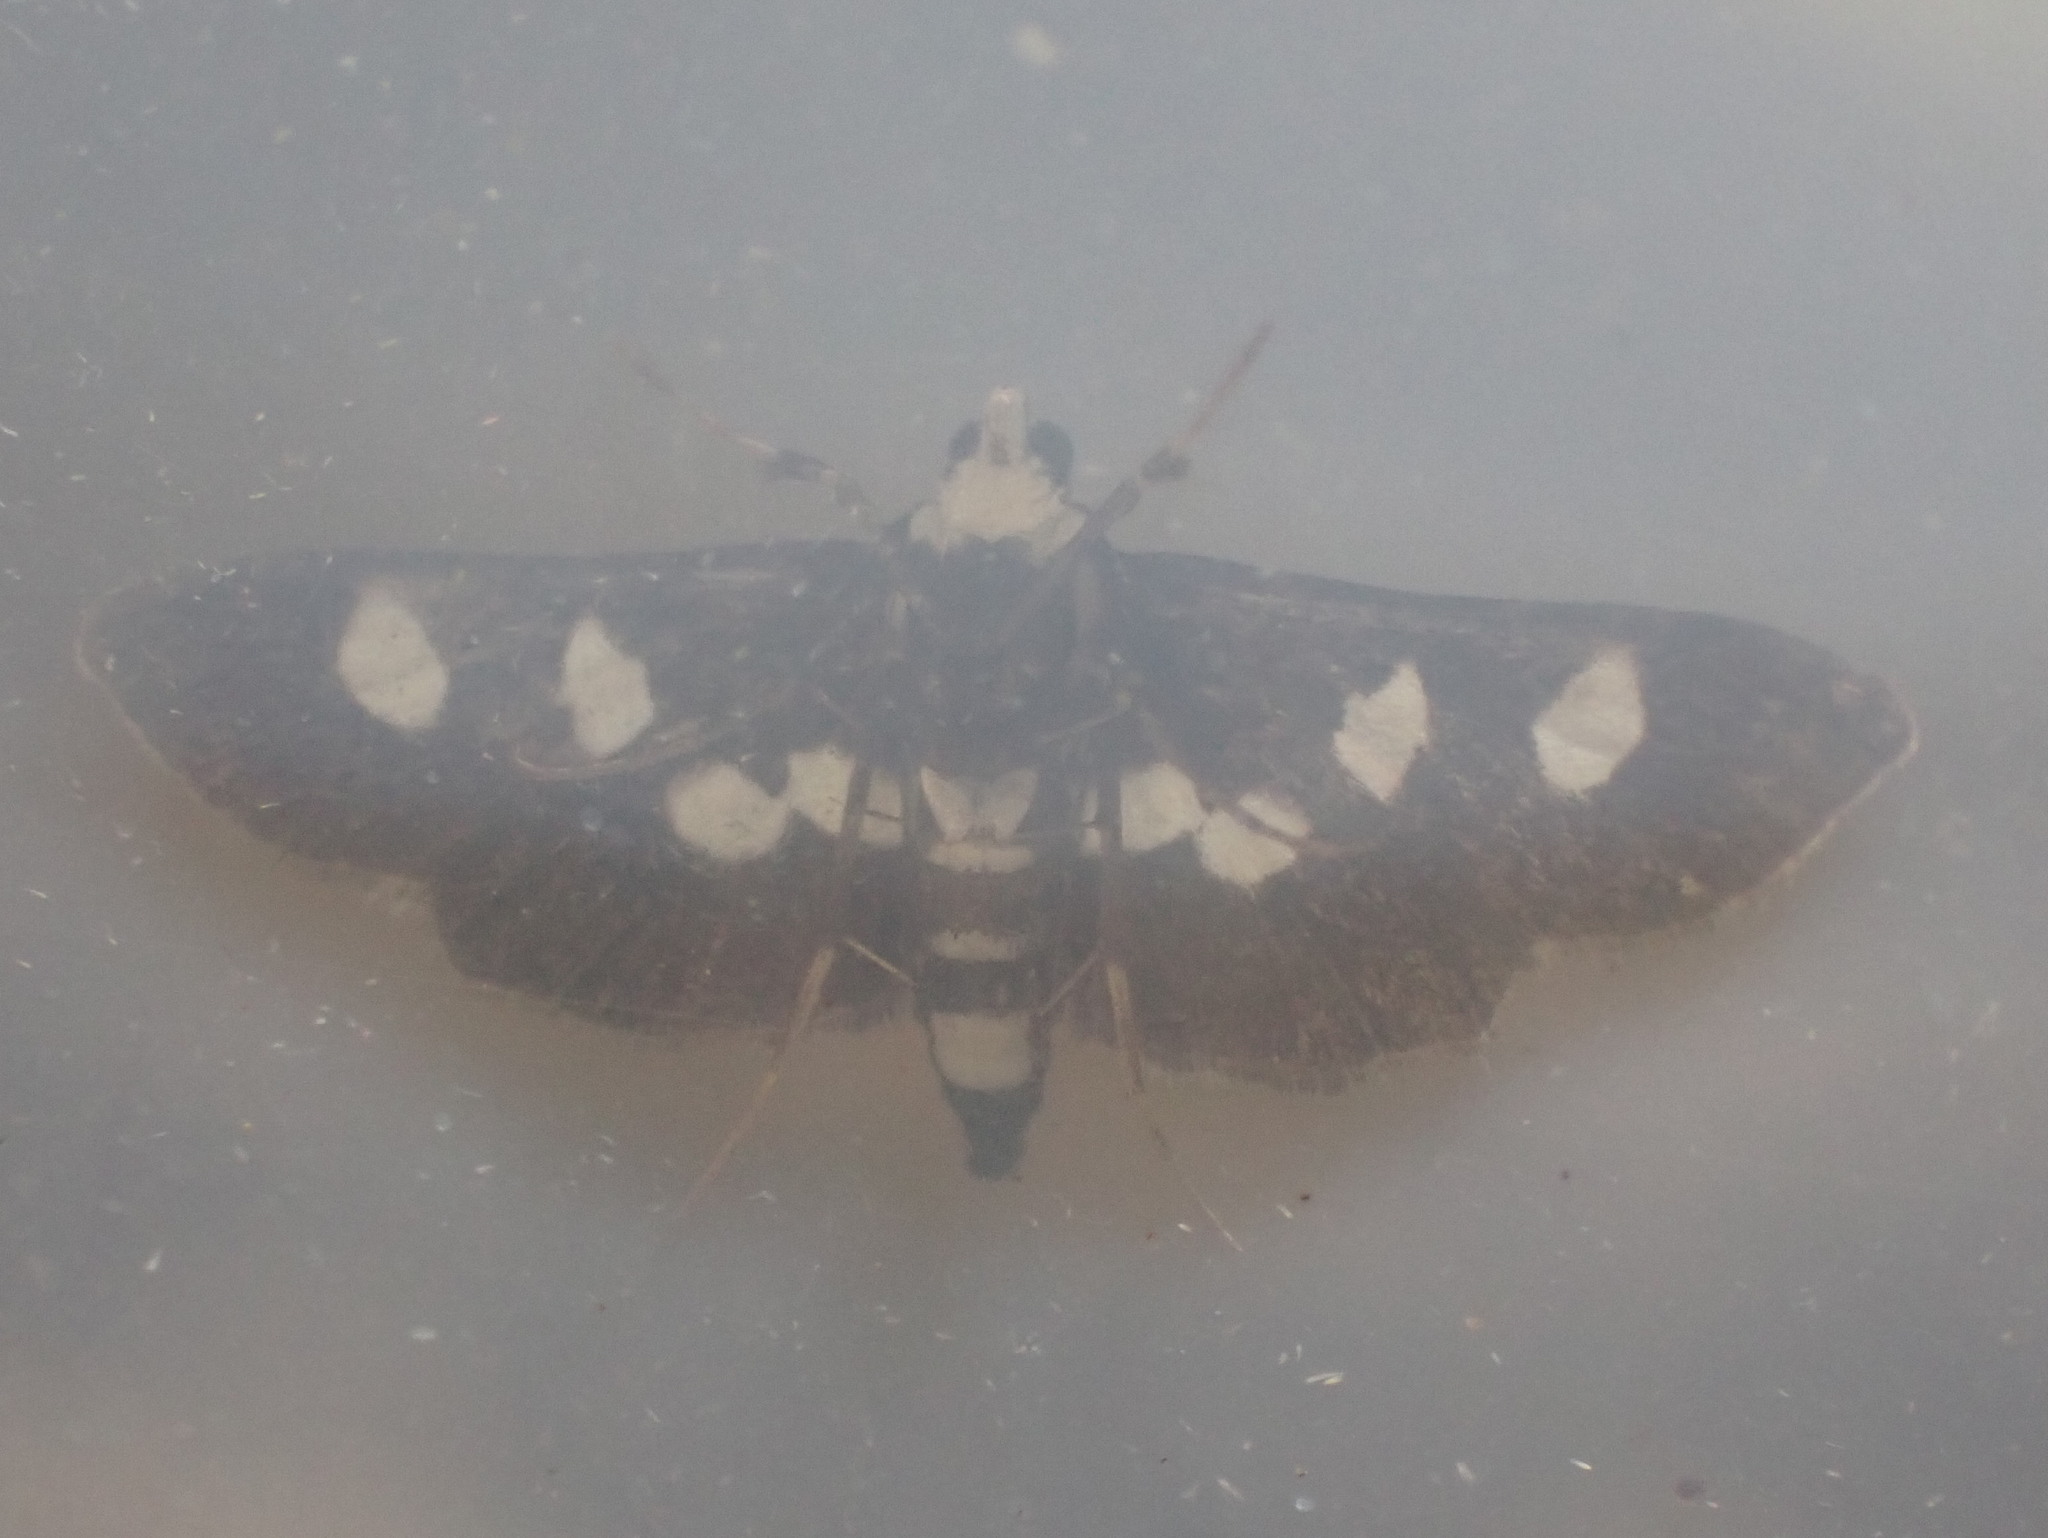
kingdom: Animalia
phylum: Arthropoda
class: Insecta
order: Lepidoptera
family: Crambidae
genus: Desmia
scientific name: Desmia funeralis
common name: Grape leaf folder moth
